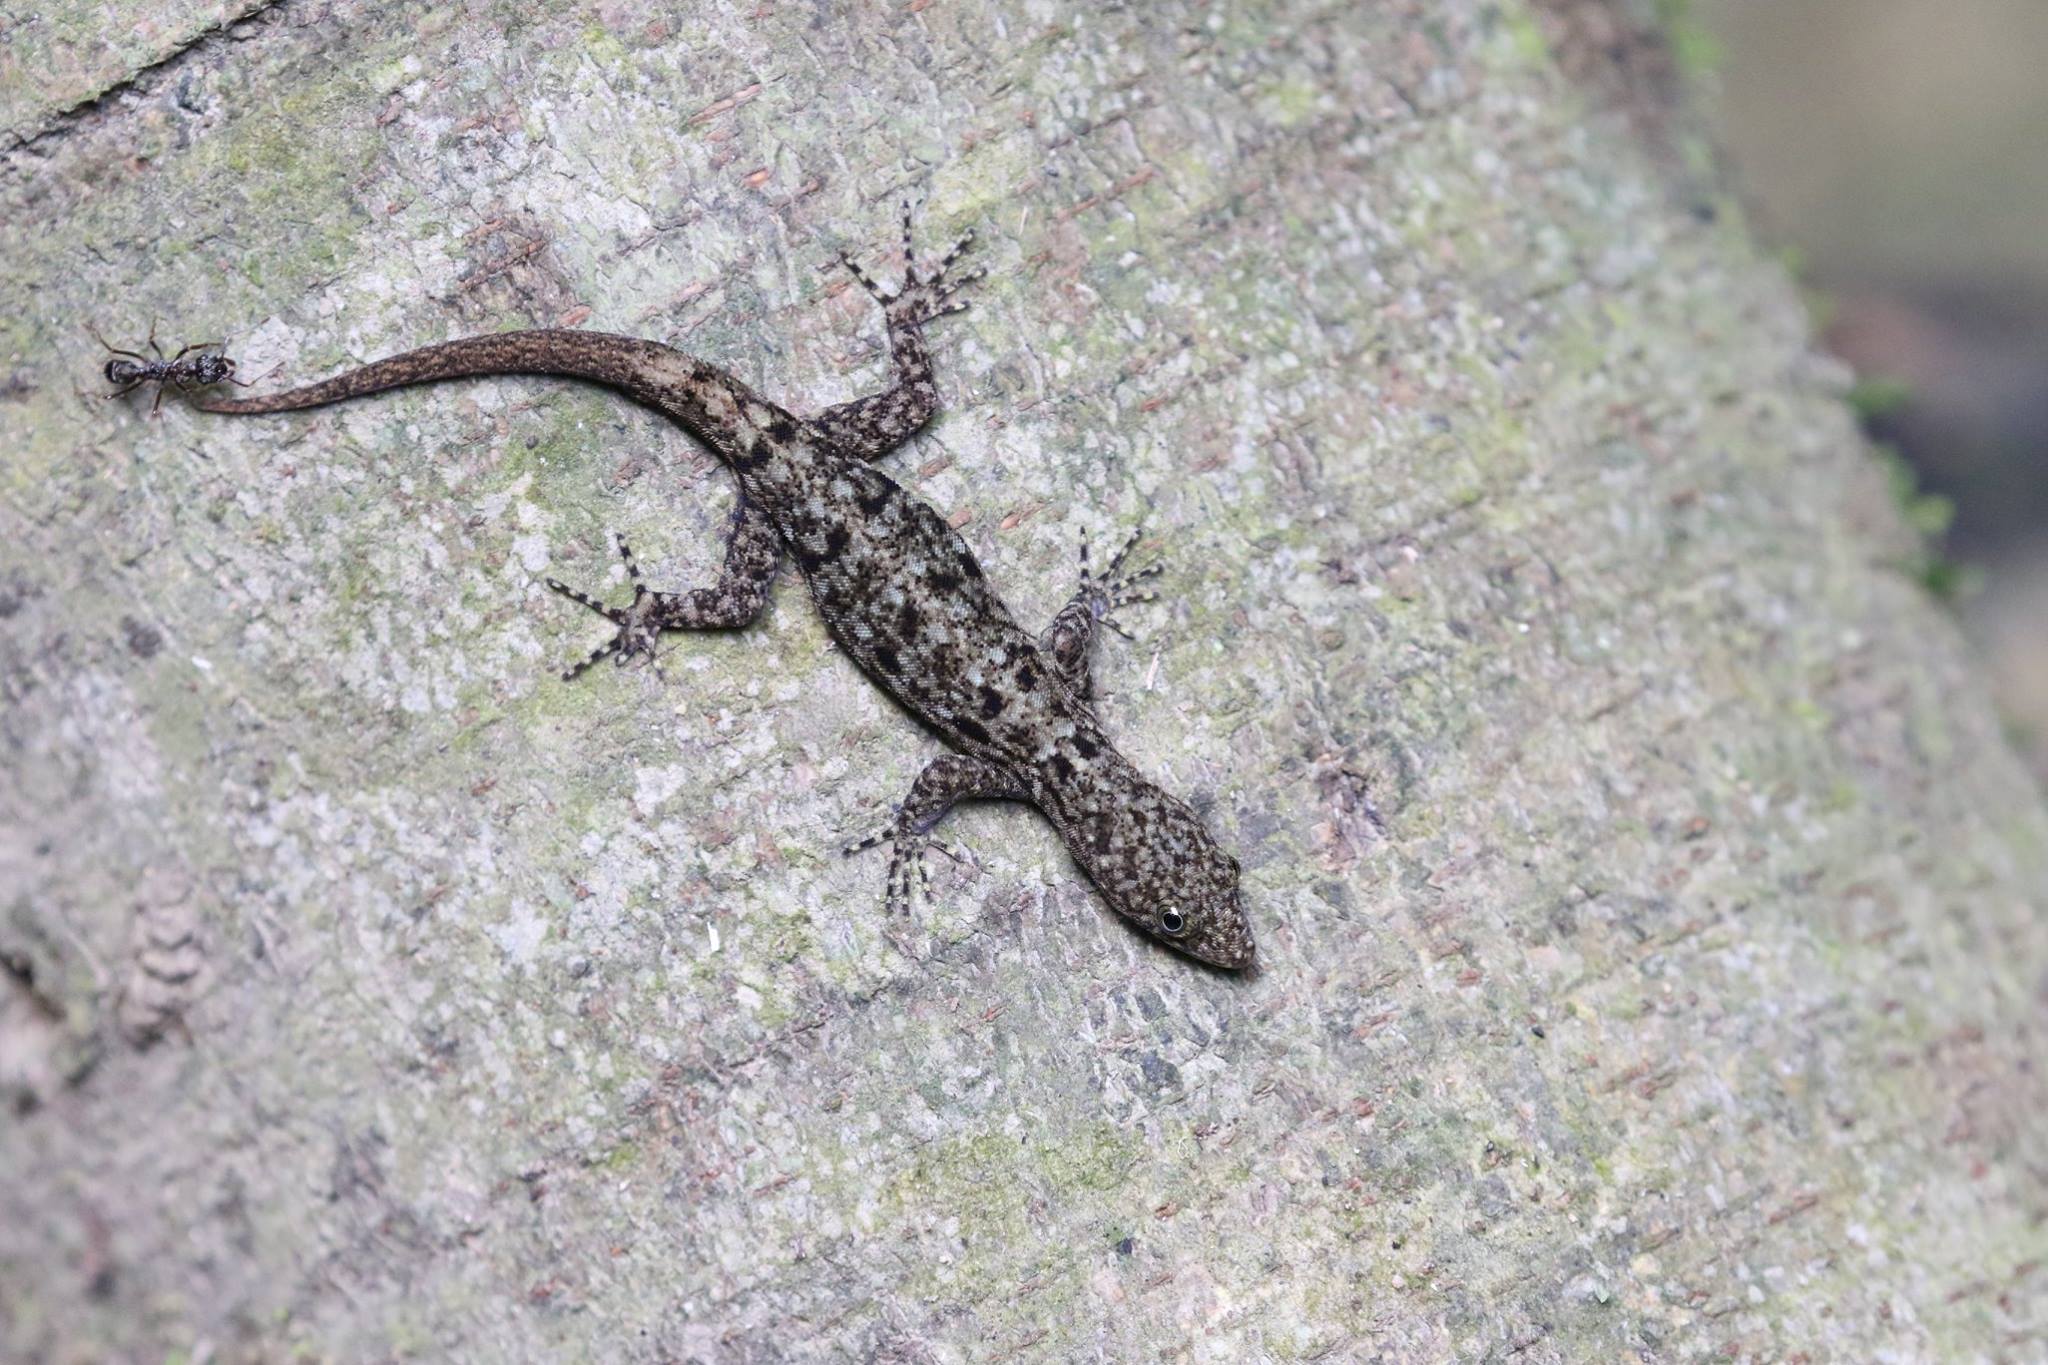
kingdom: Animalia
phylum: Chordata
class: Squamata
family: Sphaerodactylidae
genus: Gonatodes
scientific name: Gonatodes albogularis
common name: Yellow-headed gecko
